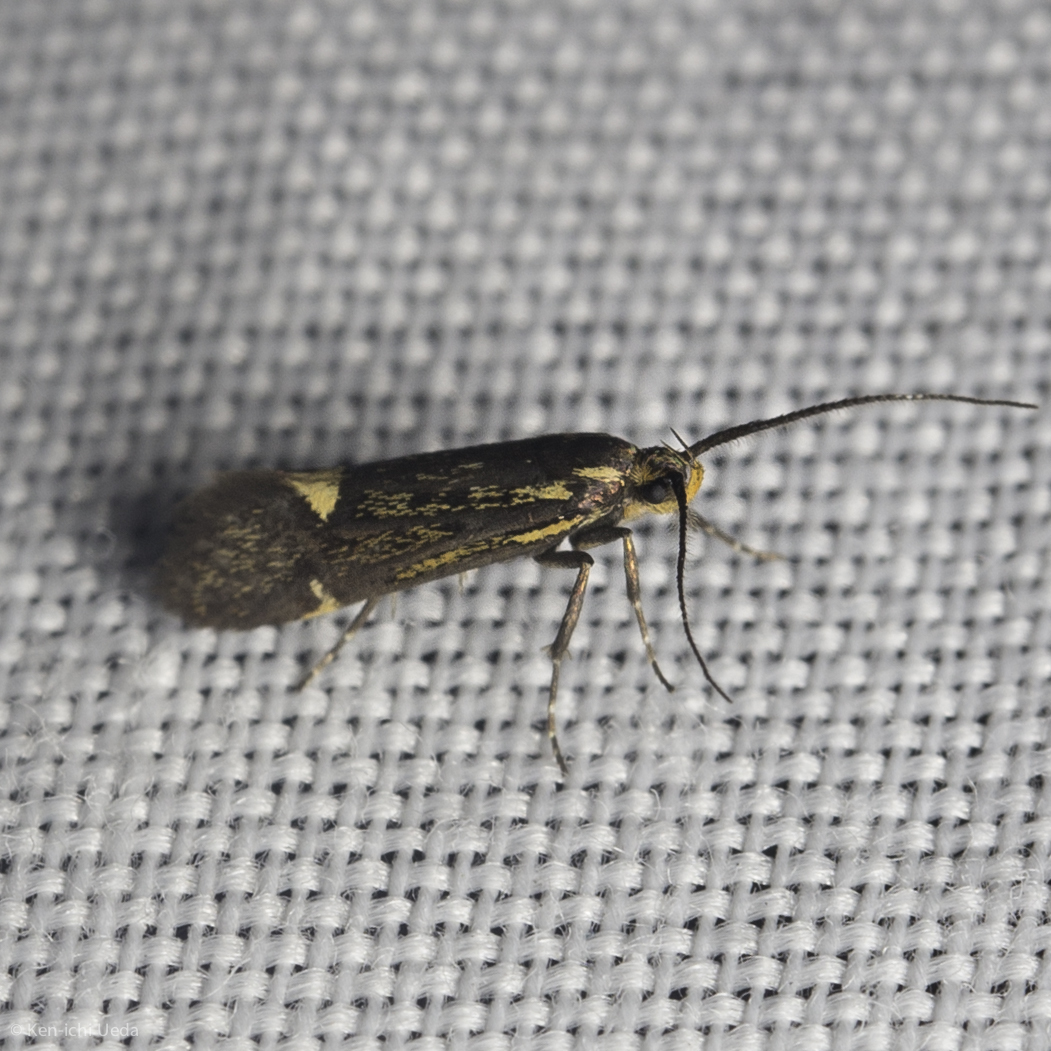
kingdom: Animalia
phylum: Arthropoda
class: Insecta
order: Lepidoptera
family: Oecophoridae
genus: Dafa
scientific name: Dafa Esperia sulphurella
